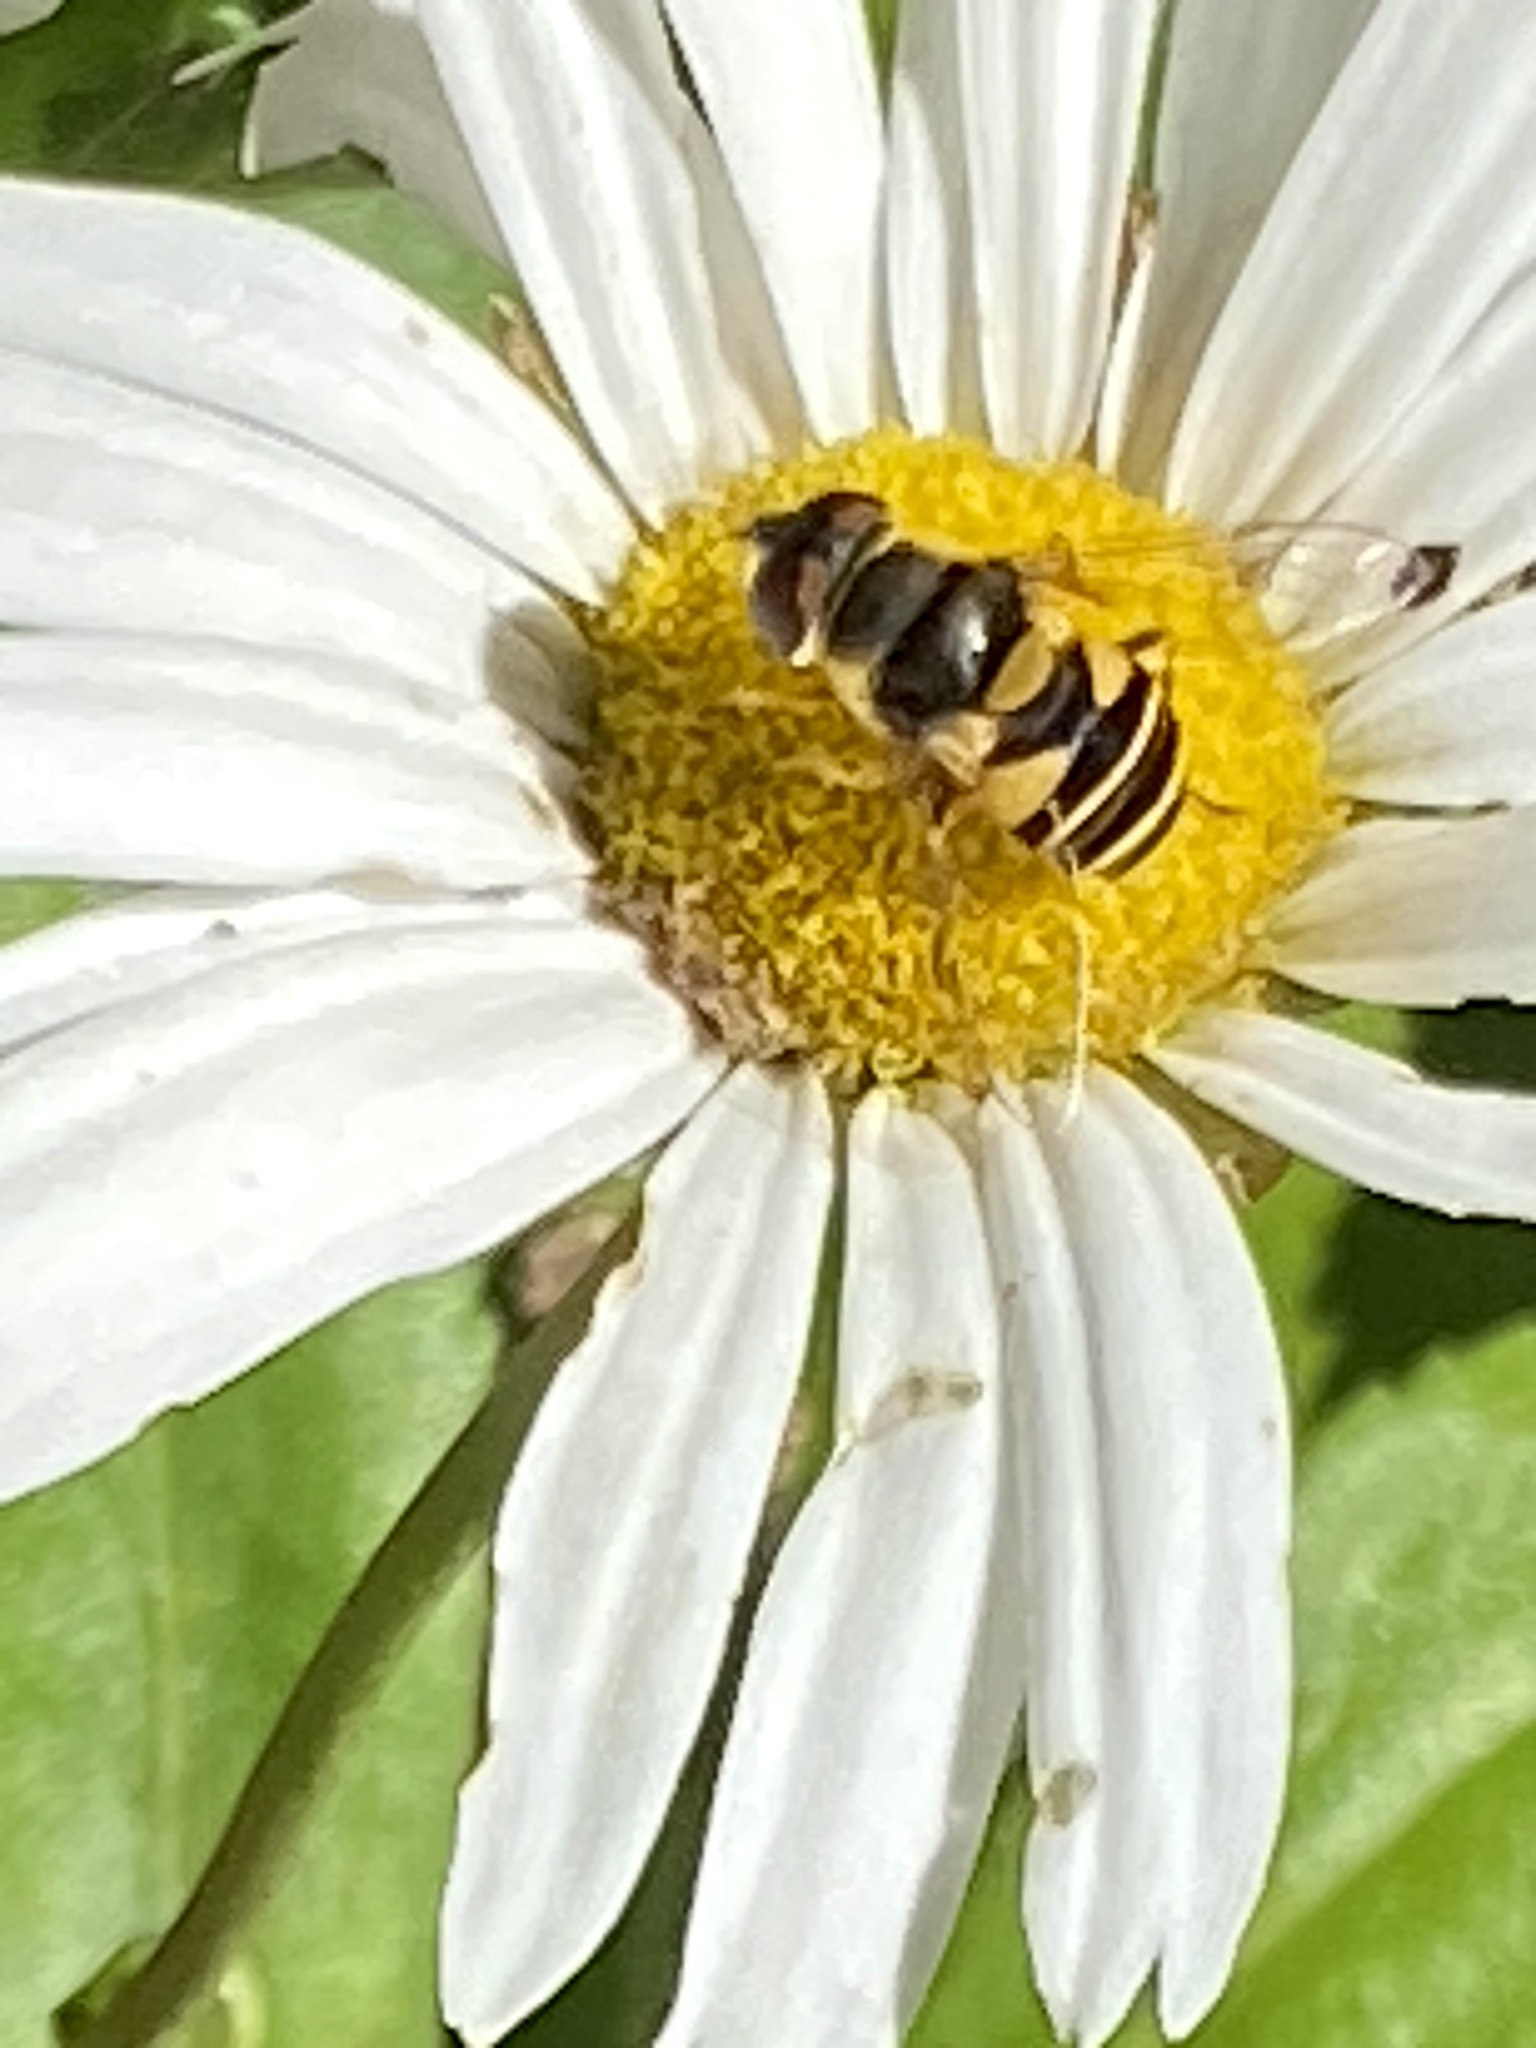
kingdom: Animalia
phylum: Arthropoda
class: Insecta
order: Diptera
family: Syrphidae
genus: Eristalis
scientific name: Eristalis transversa
